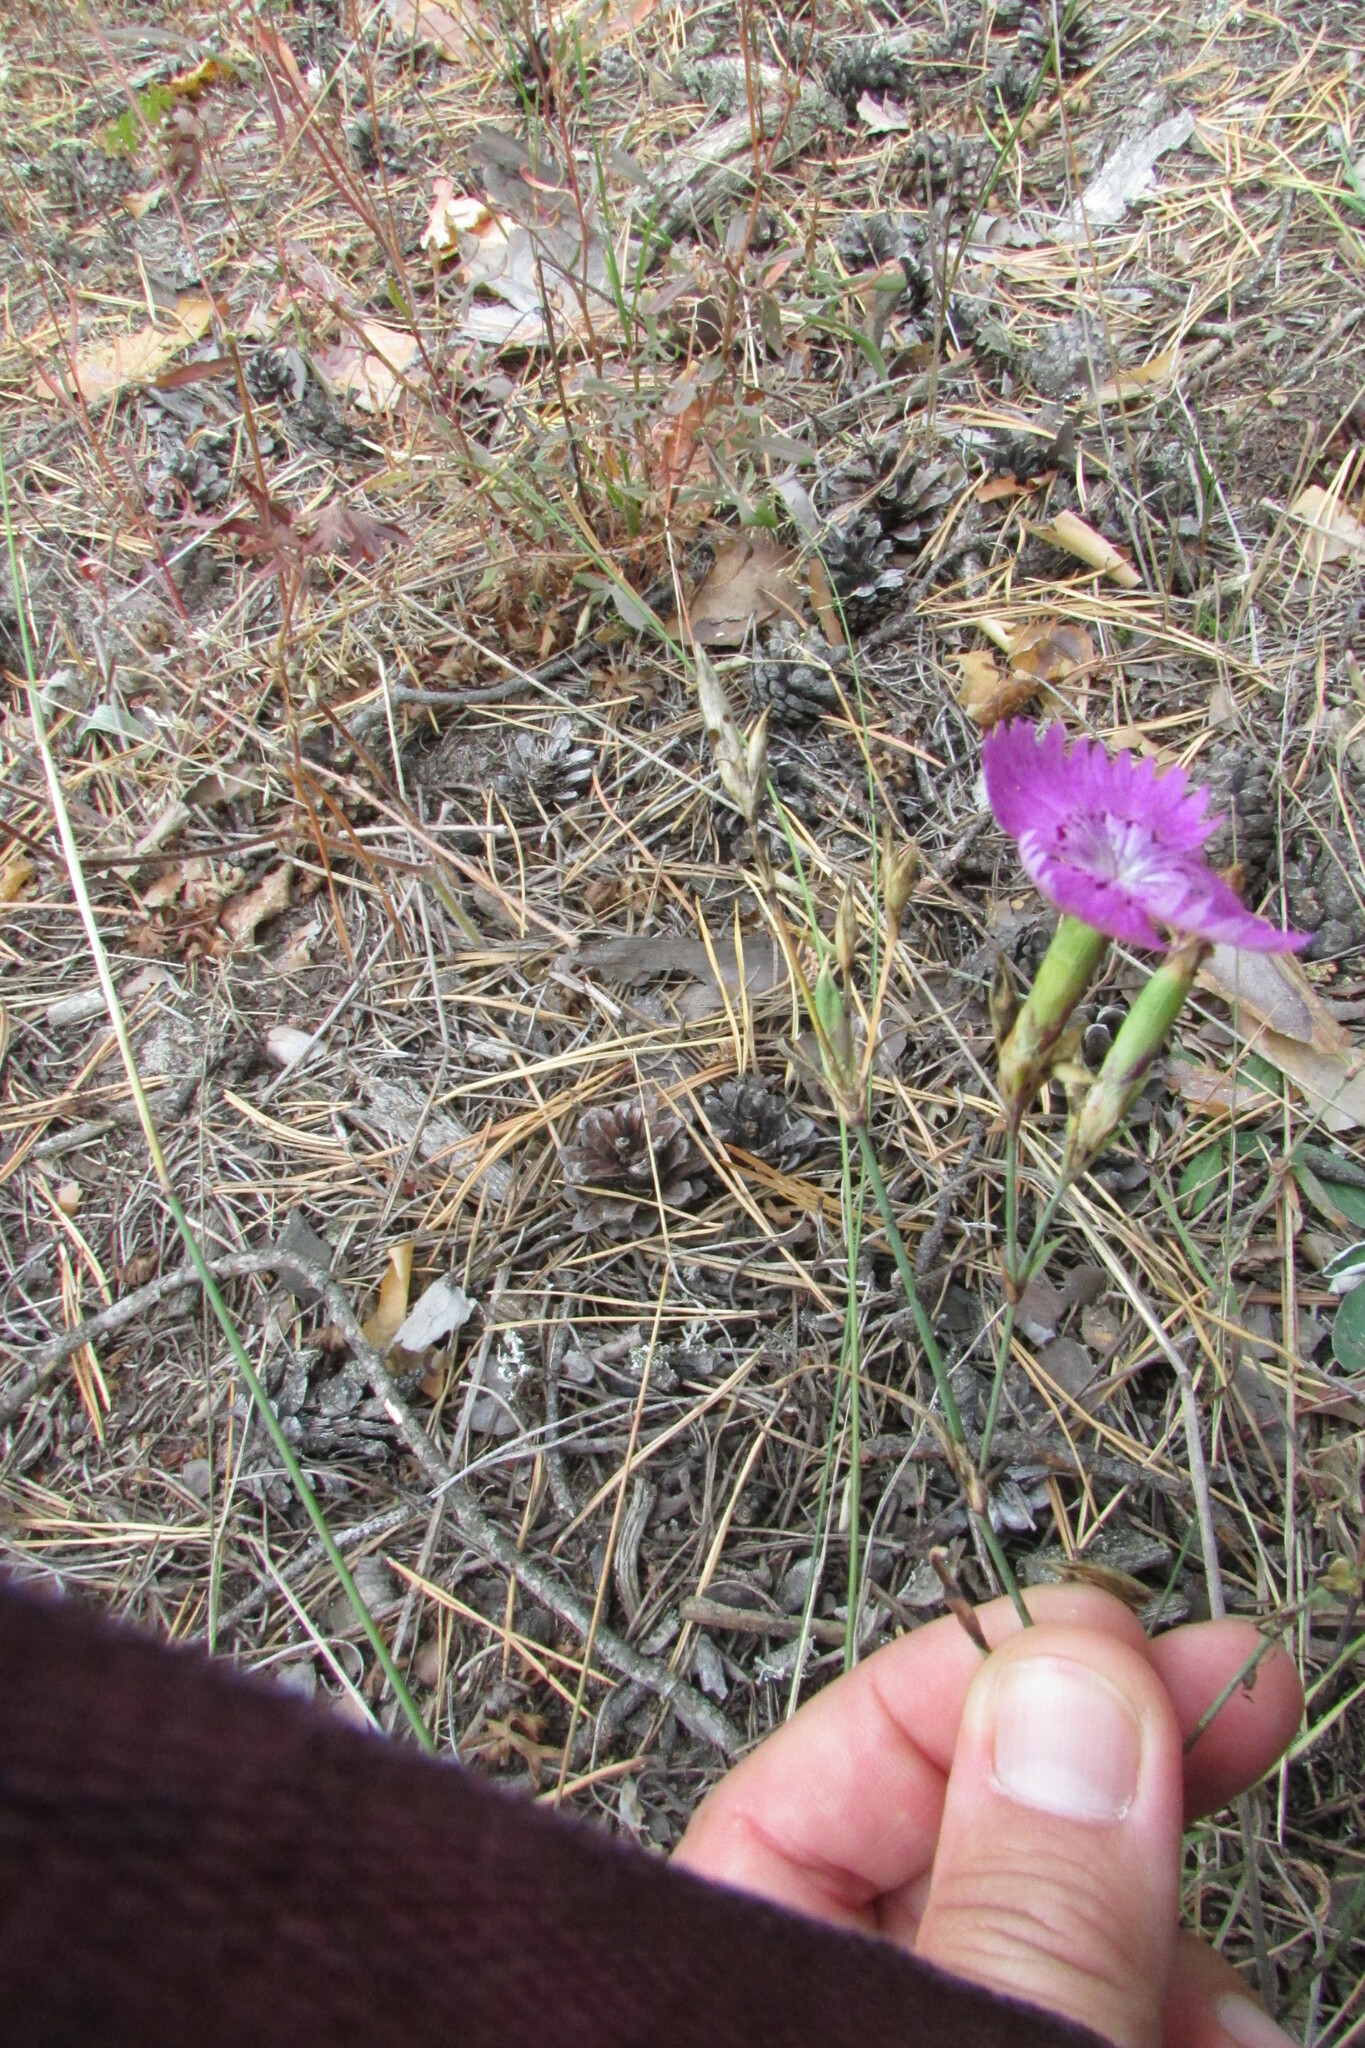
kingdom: Plantae
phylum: Tracheophyta
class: Magnoliopsida
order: Caryophyllales
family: Caryophyllaceae
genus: Dianthus
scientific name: Dianthus campestris
